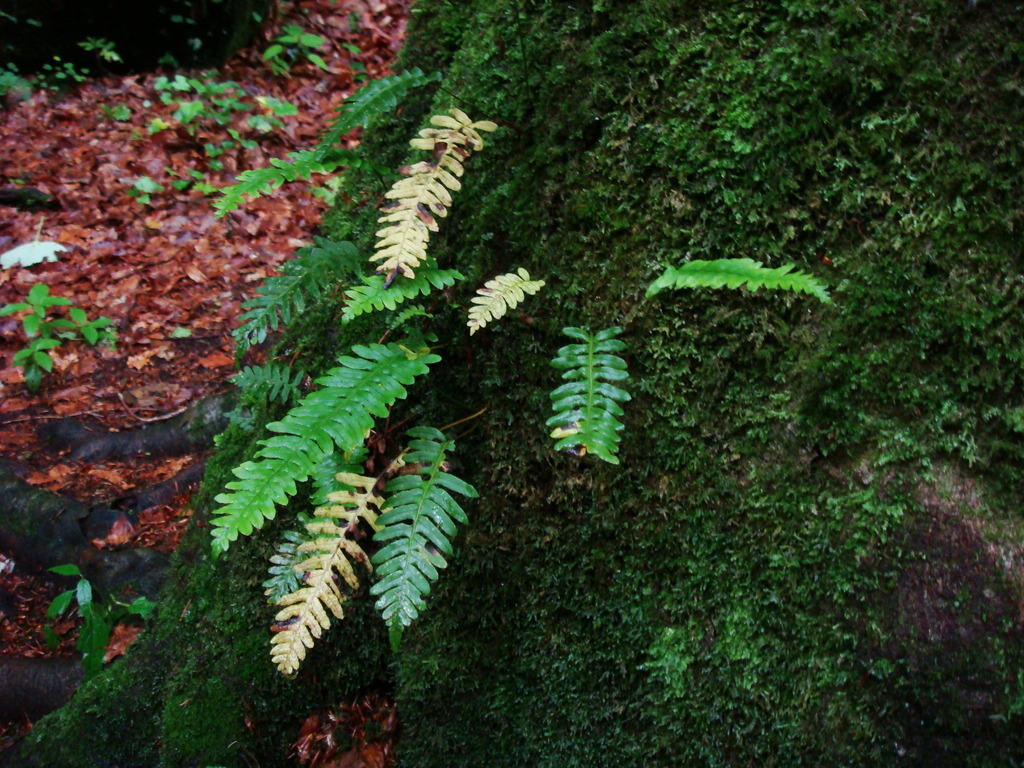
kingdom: Plantae
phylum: Tracheophyta
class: Polypodiopsida
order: Polypodiales
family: Polypodiaceae
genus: Polypodium
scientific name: Polypodium vulgare
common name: Common polypody
